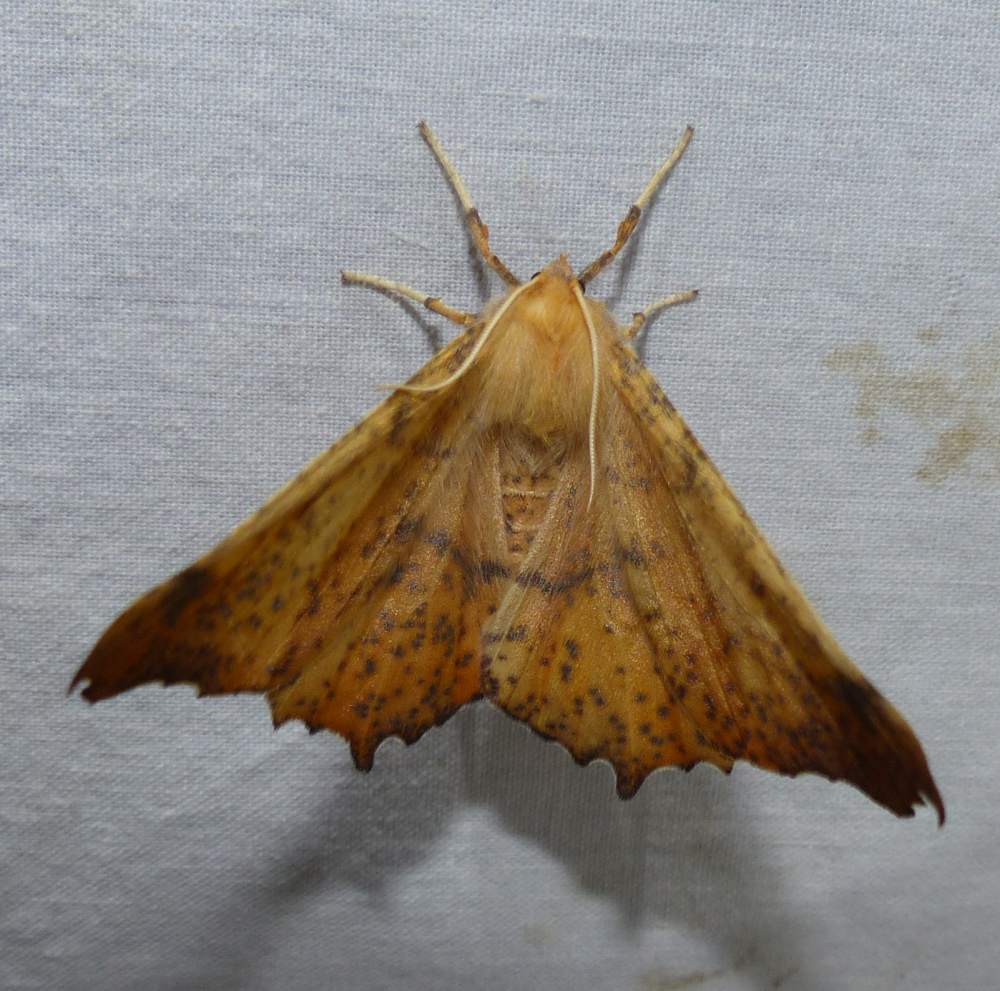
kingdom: Animalia
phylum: Arthropoda
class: Insecta
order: Lepidoptera
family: Geometridae
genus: Ennomos
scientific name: Ennomos magnaria
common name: Maple spanworm
